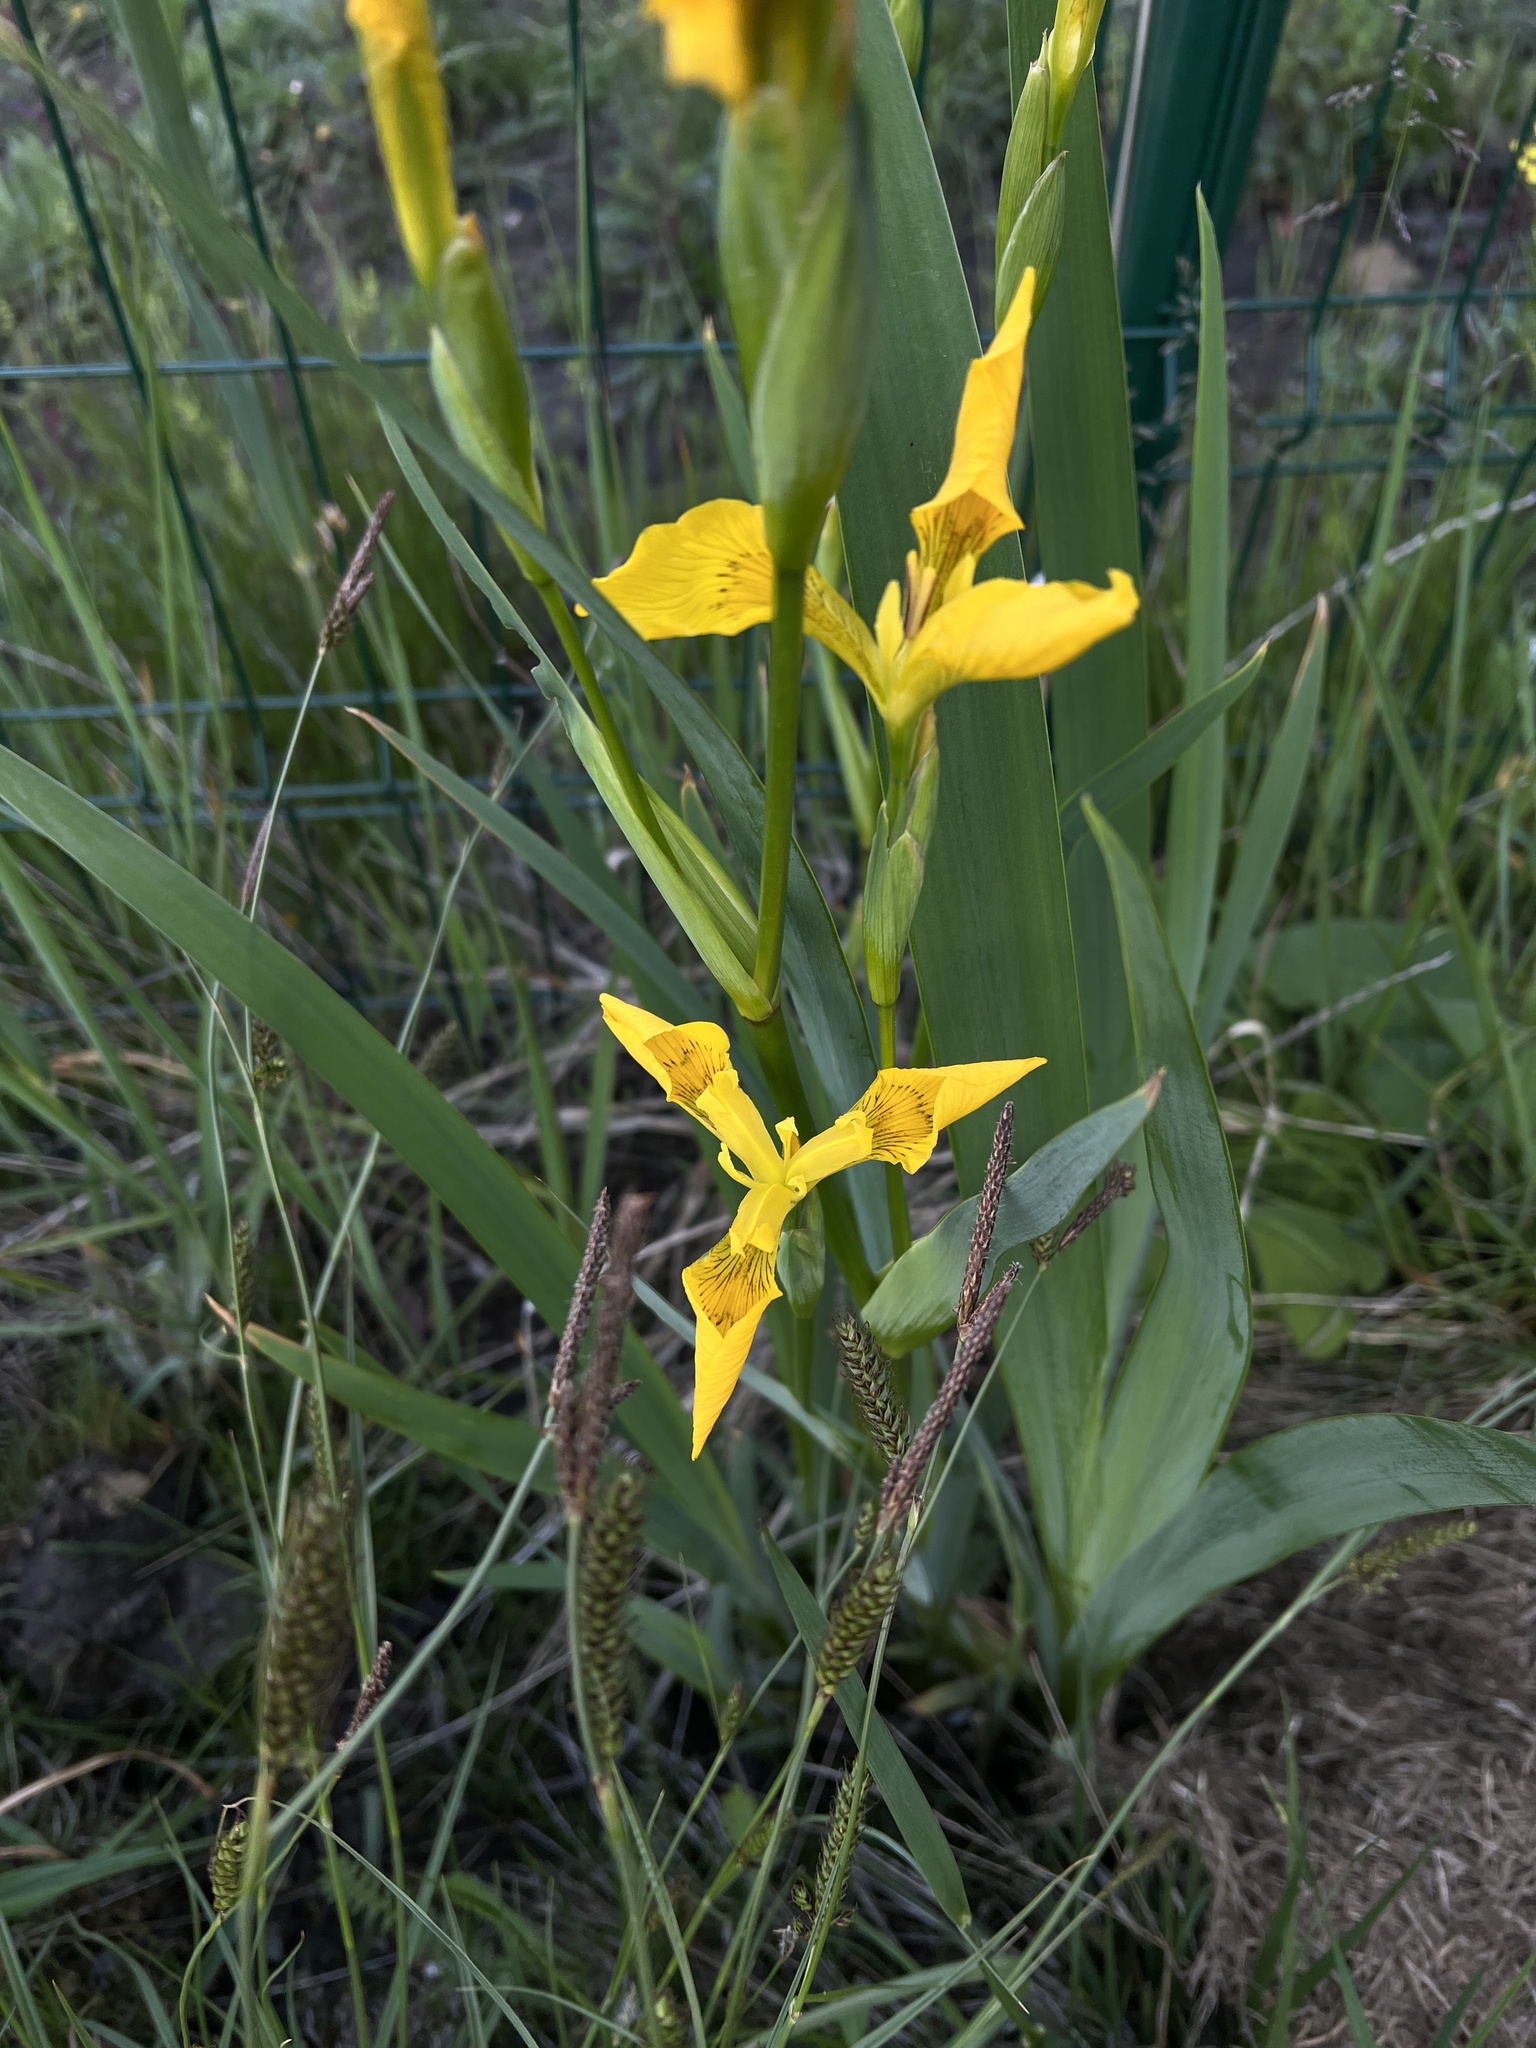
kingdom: Plantae
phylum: Tracheophyta
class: Liliopsida
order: Asparagales
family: Iridaceae
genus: Iris
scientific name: Iris pseudacorus
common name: Yellow flag
